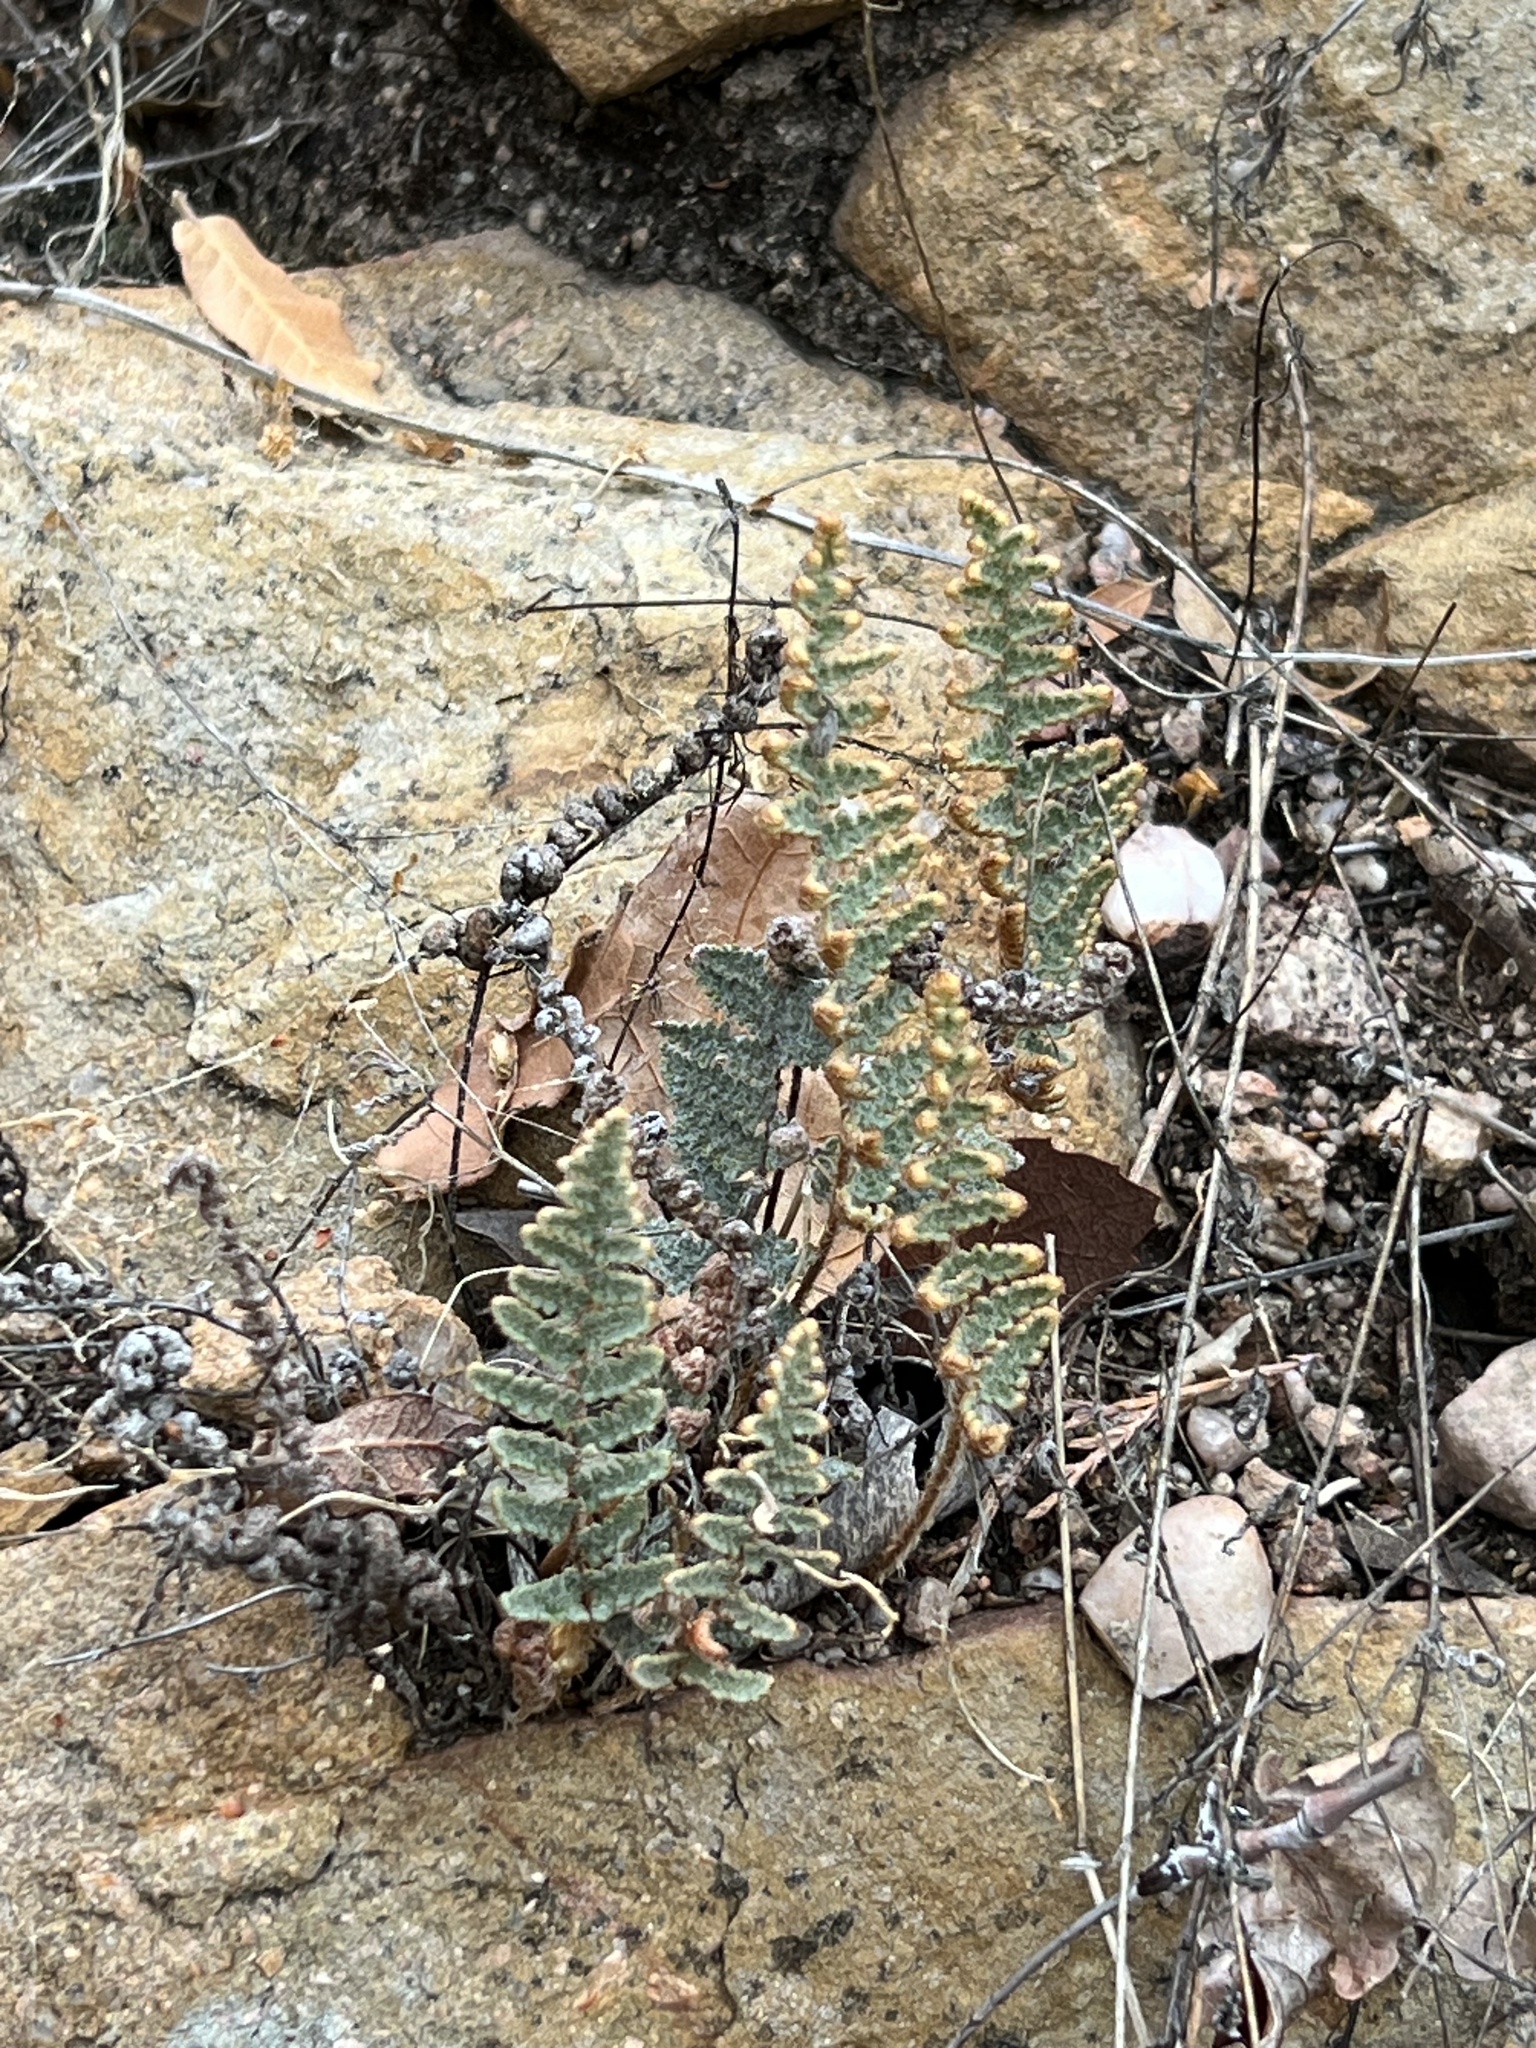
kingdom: Plantae
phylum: Tracheophyta
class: Polypodiopsida
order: Polypodiales
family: Pteridaceae
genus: Myriopteris
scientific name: Myriopteris lindheimeri
